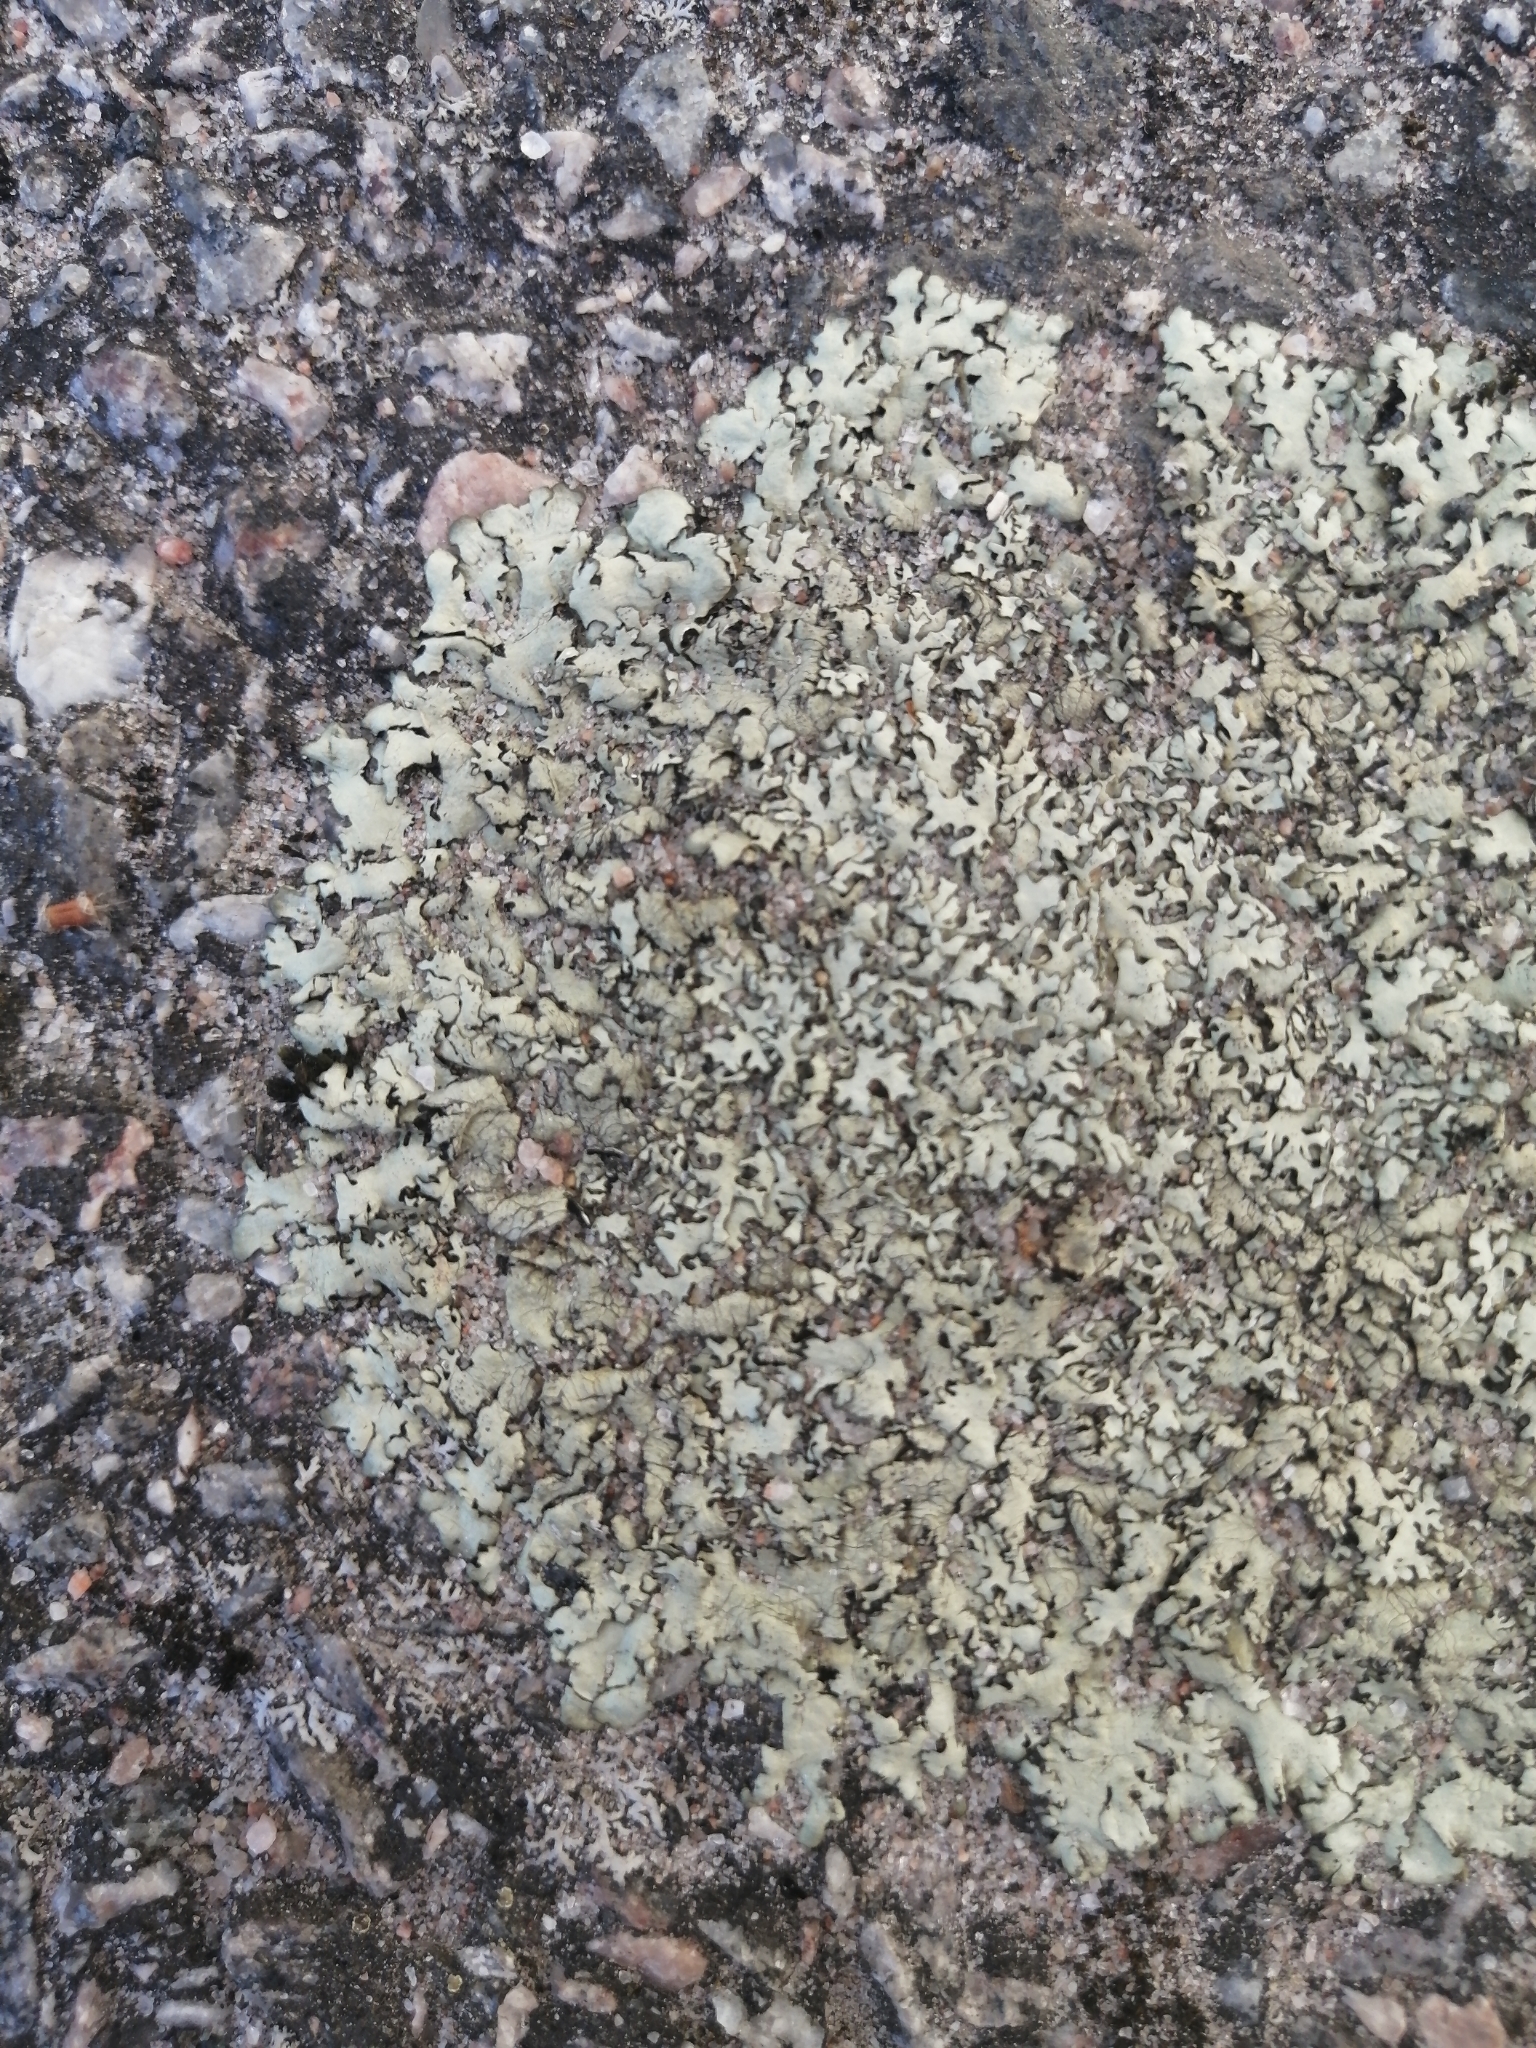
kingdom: Fungi
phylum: Ascomycota
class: Lecanoromycetes
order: Lecanorales
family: Parmeliaceae
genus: Xanthoparmelia
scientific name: Xanthoparmelia stenophylla
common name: Shingled rock shield
